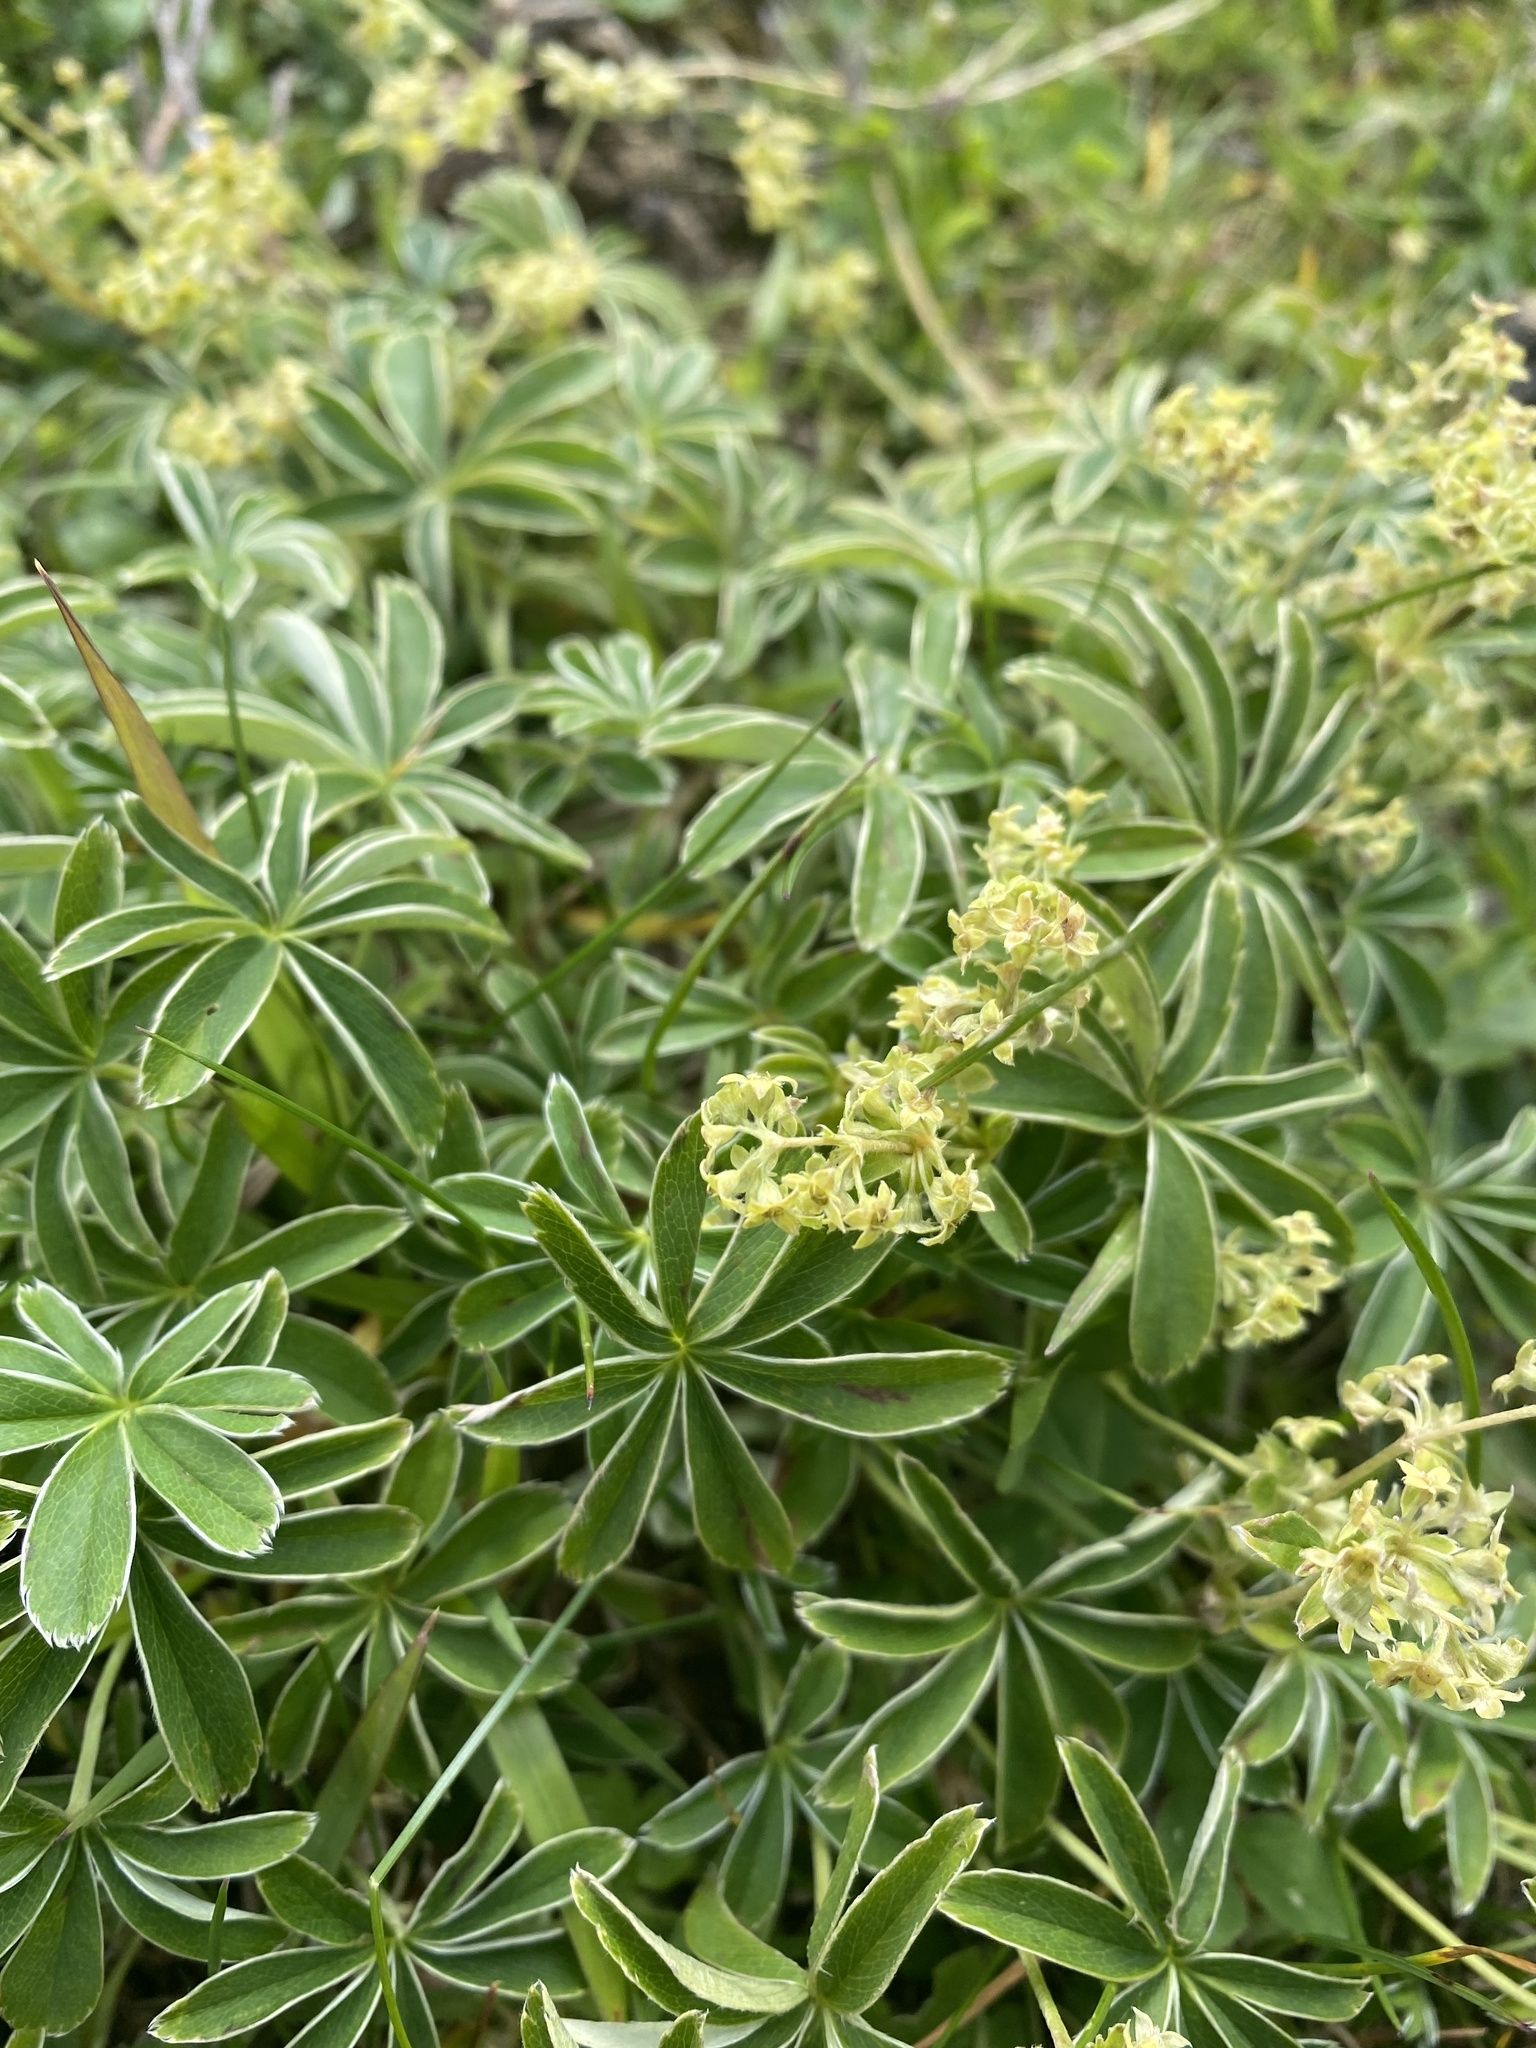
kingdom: Plantae
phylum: Tracheophyta
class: Magnoliopsida
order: Rosales
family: Rosaceae
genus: Alchemilla
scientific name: Alchemilla alpina
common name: Alpine lady's-mantle
